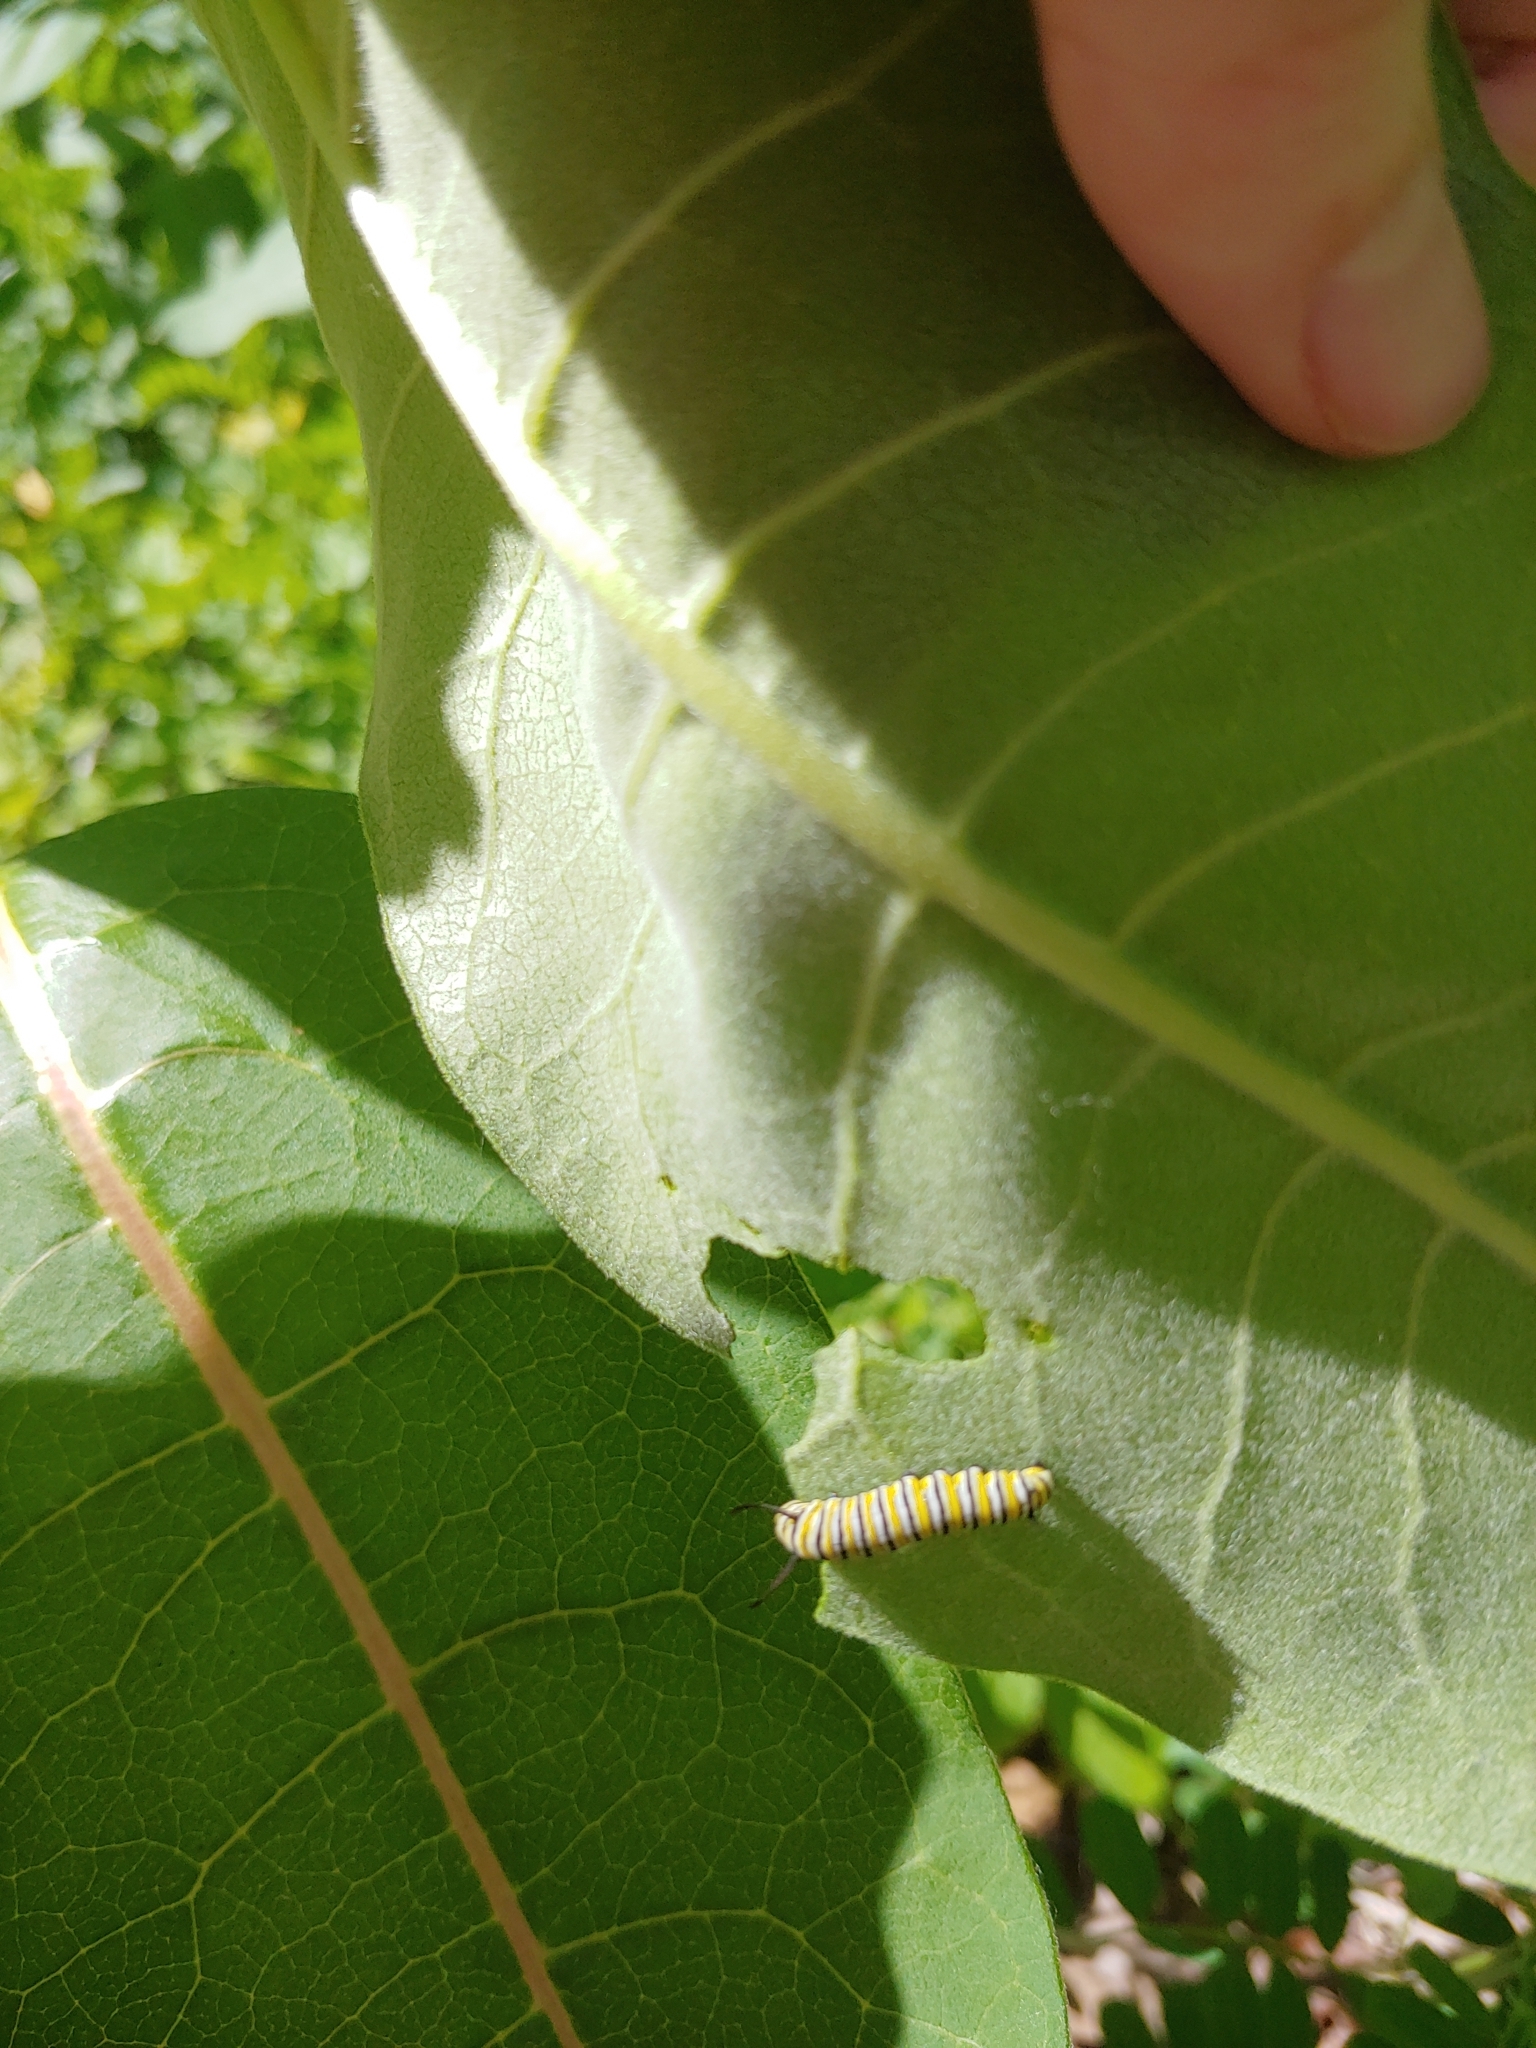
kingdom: Animalia
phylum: Arthropoda
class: Insecta
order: Lepidoptera
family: Nymphalidae
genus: Danaus
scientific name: Danaus plexippus
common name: Monarch
